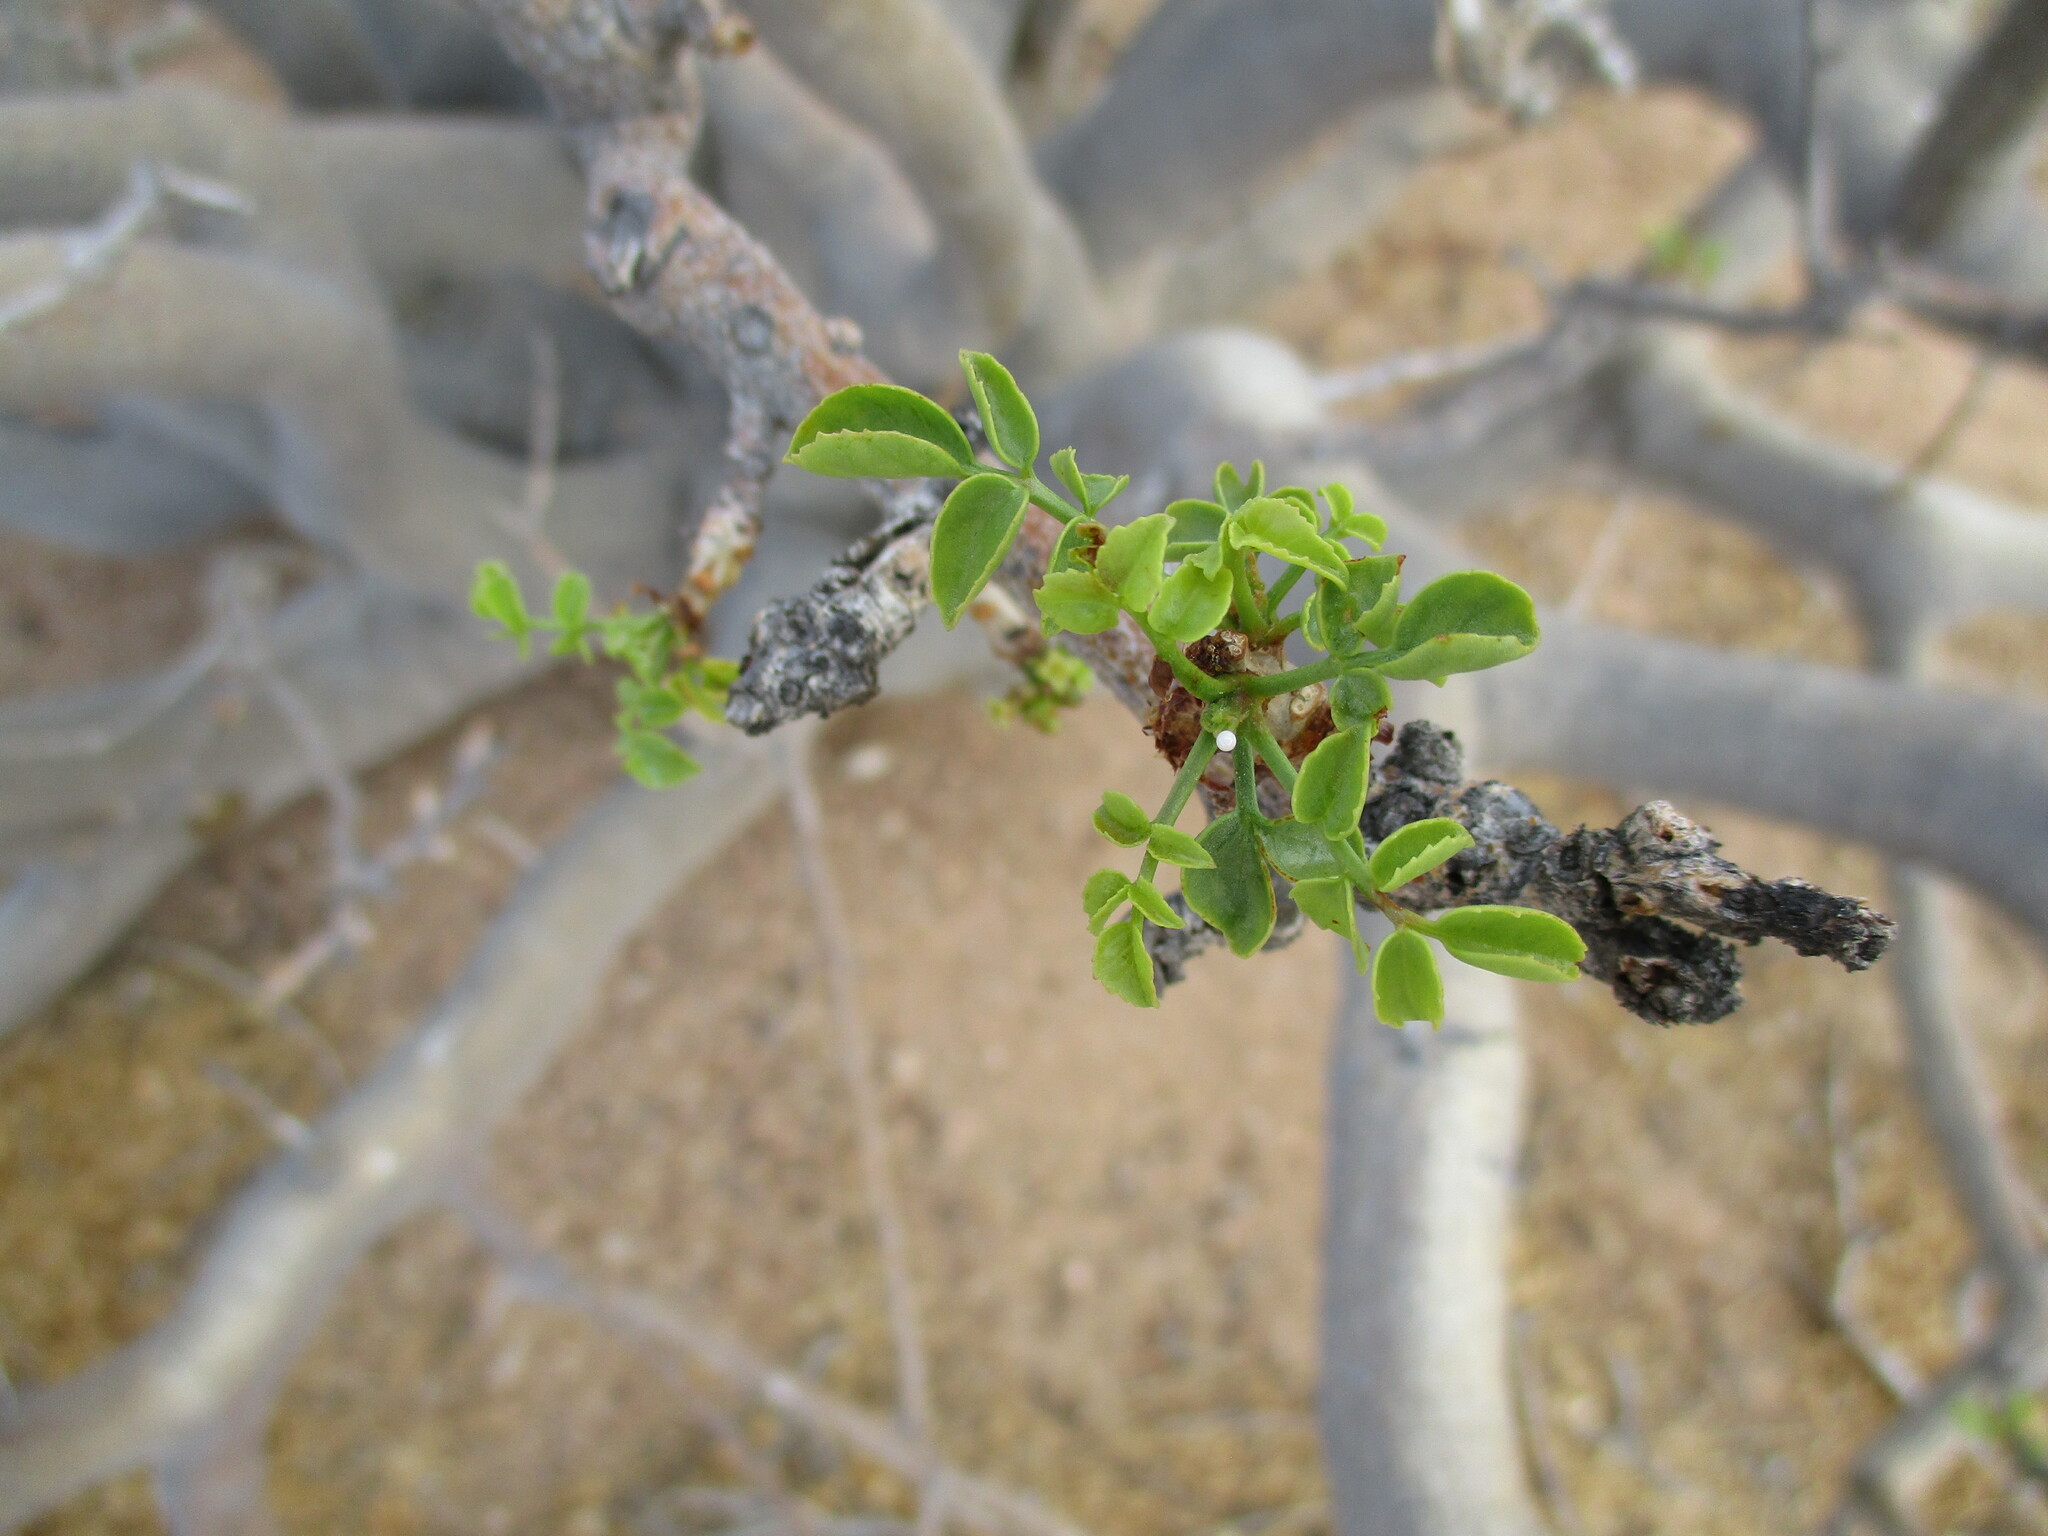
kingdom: Plantae
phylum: Tracheophyta
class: Magnoliopsida
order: Sapindales
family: Burseraceae
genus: Commiphora
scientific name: Commiphora saxicola
